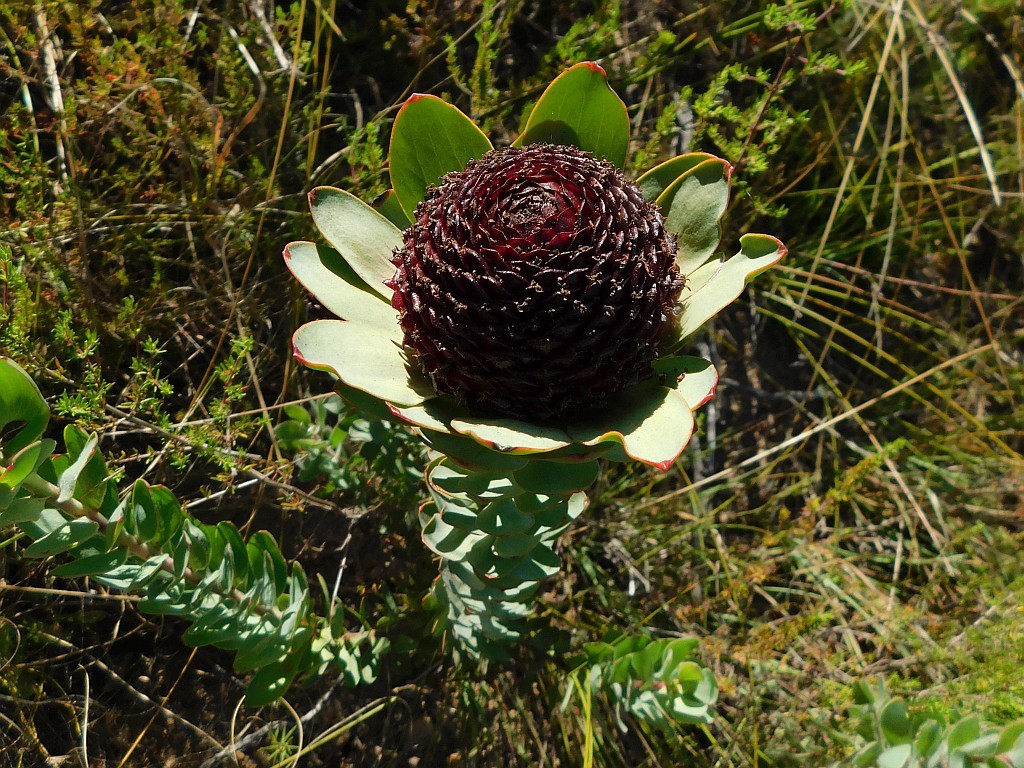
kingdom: Plantae
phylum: Tracheophyta
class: Magnoliopsida
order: Proteales
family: Proteaceae
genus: Leucadendron
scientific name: Leucadendron elimense
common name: Elim conebush
